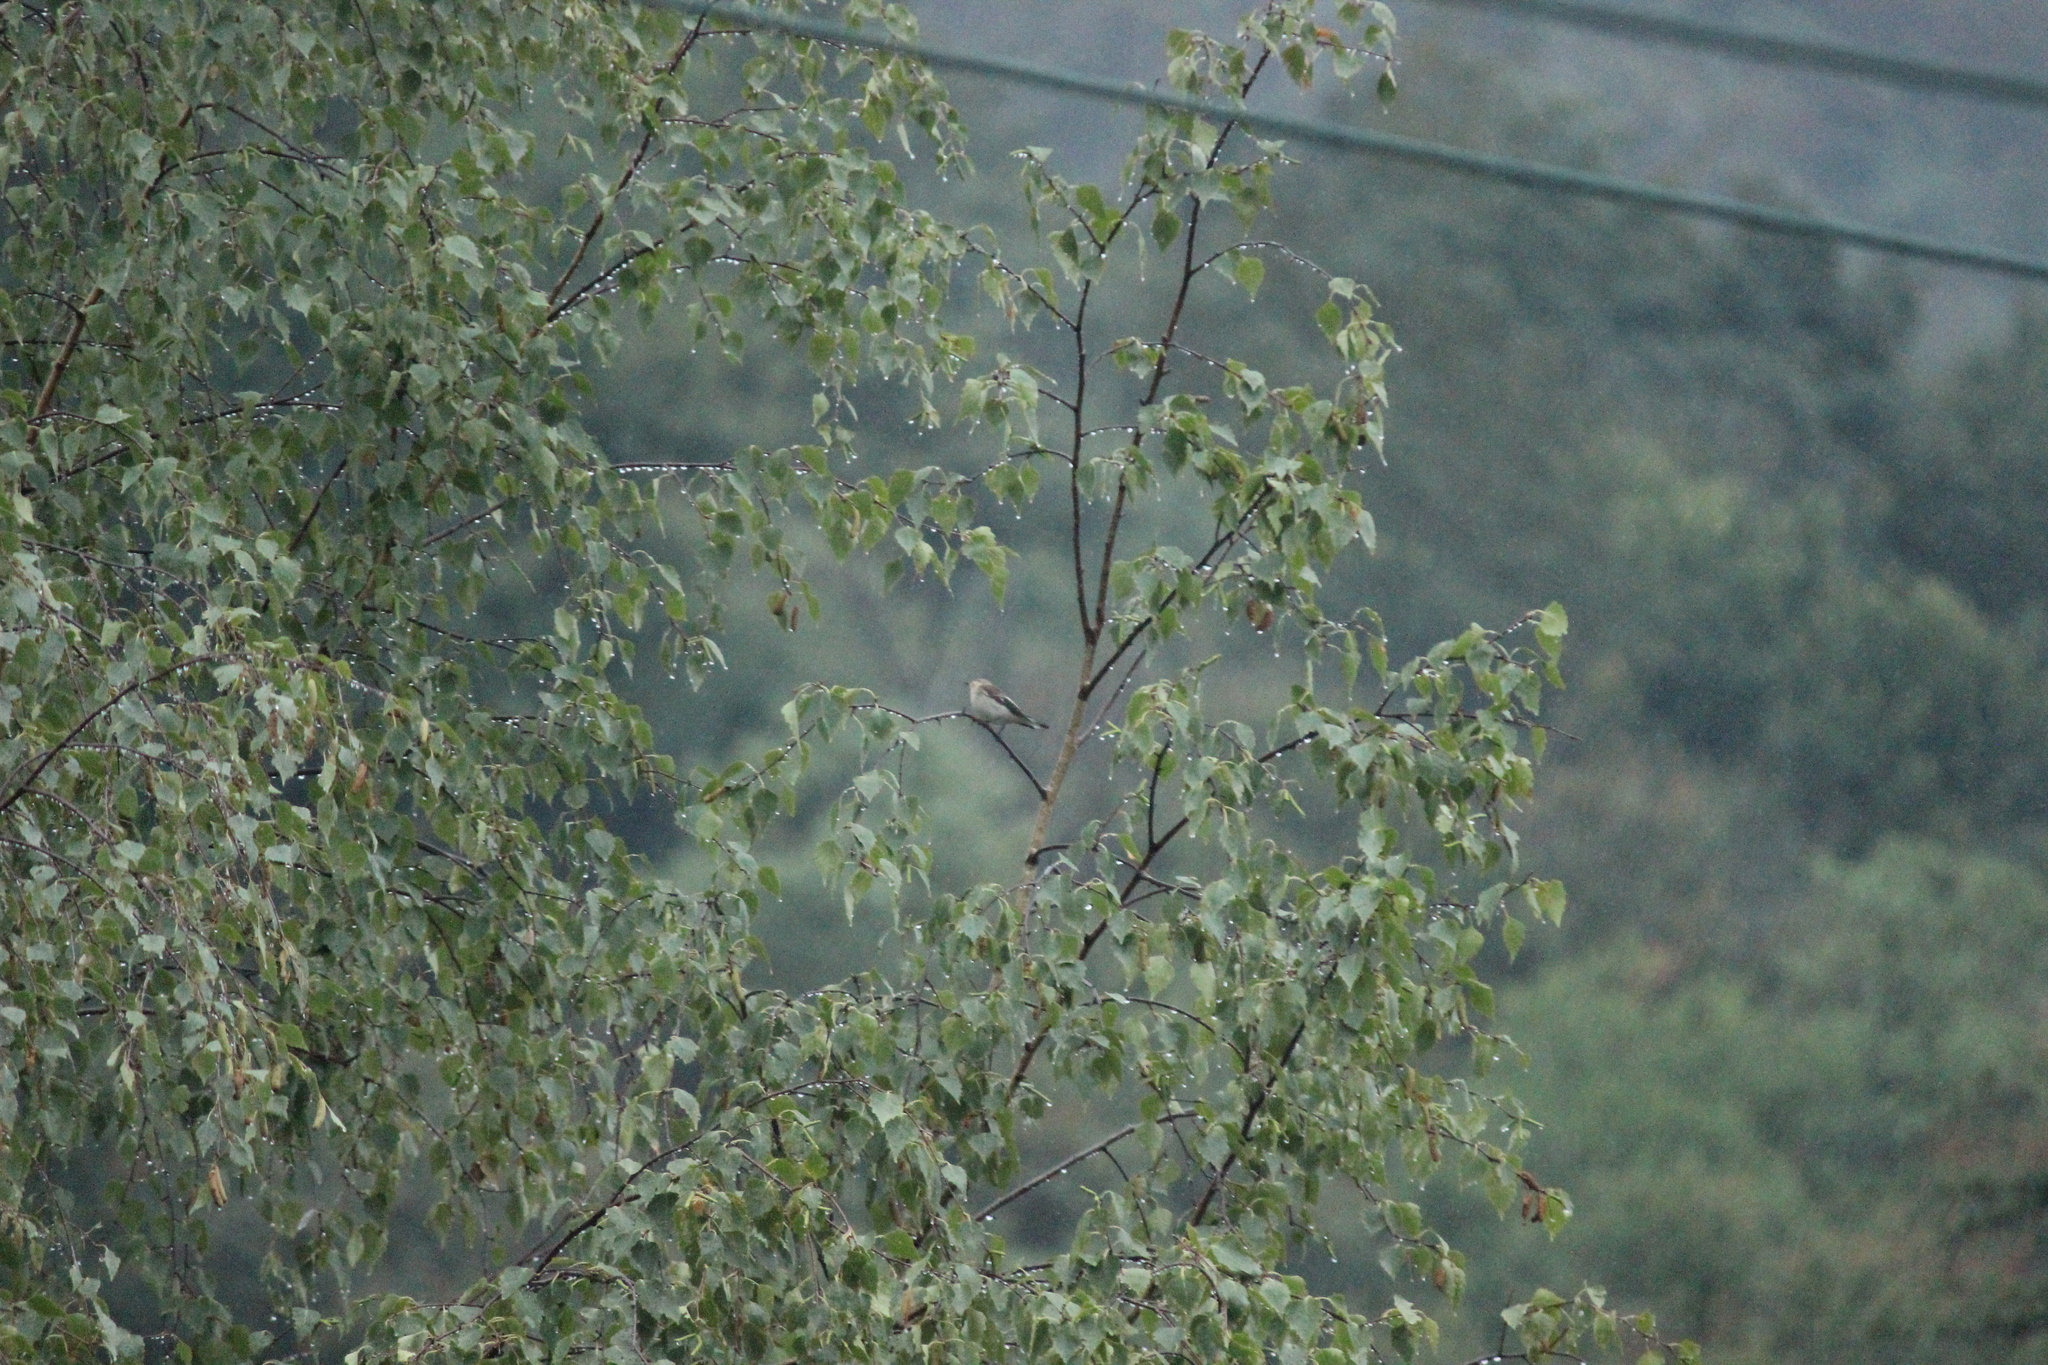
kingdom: Animalia
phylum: Chordata
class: Aves
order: Passeriformes
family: Muscicapidae
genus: Ficedula
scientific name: Ficedula hypoleuca
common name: European pied flycatcher
